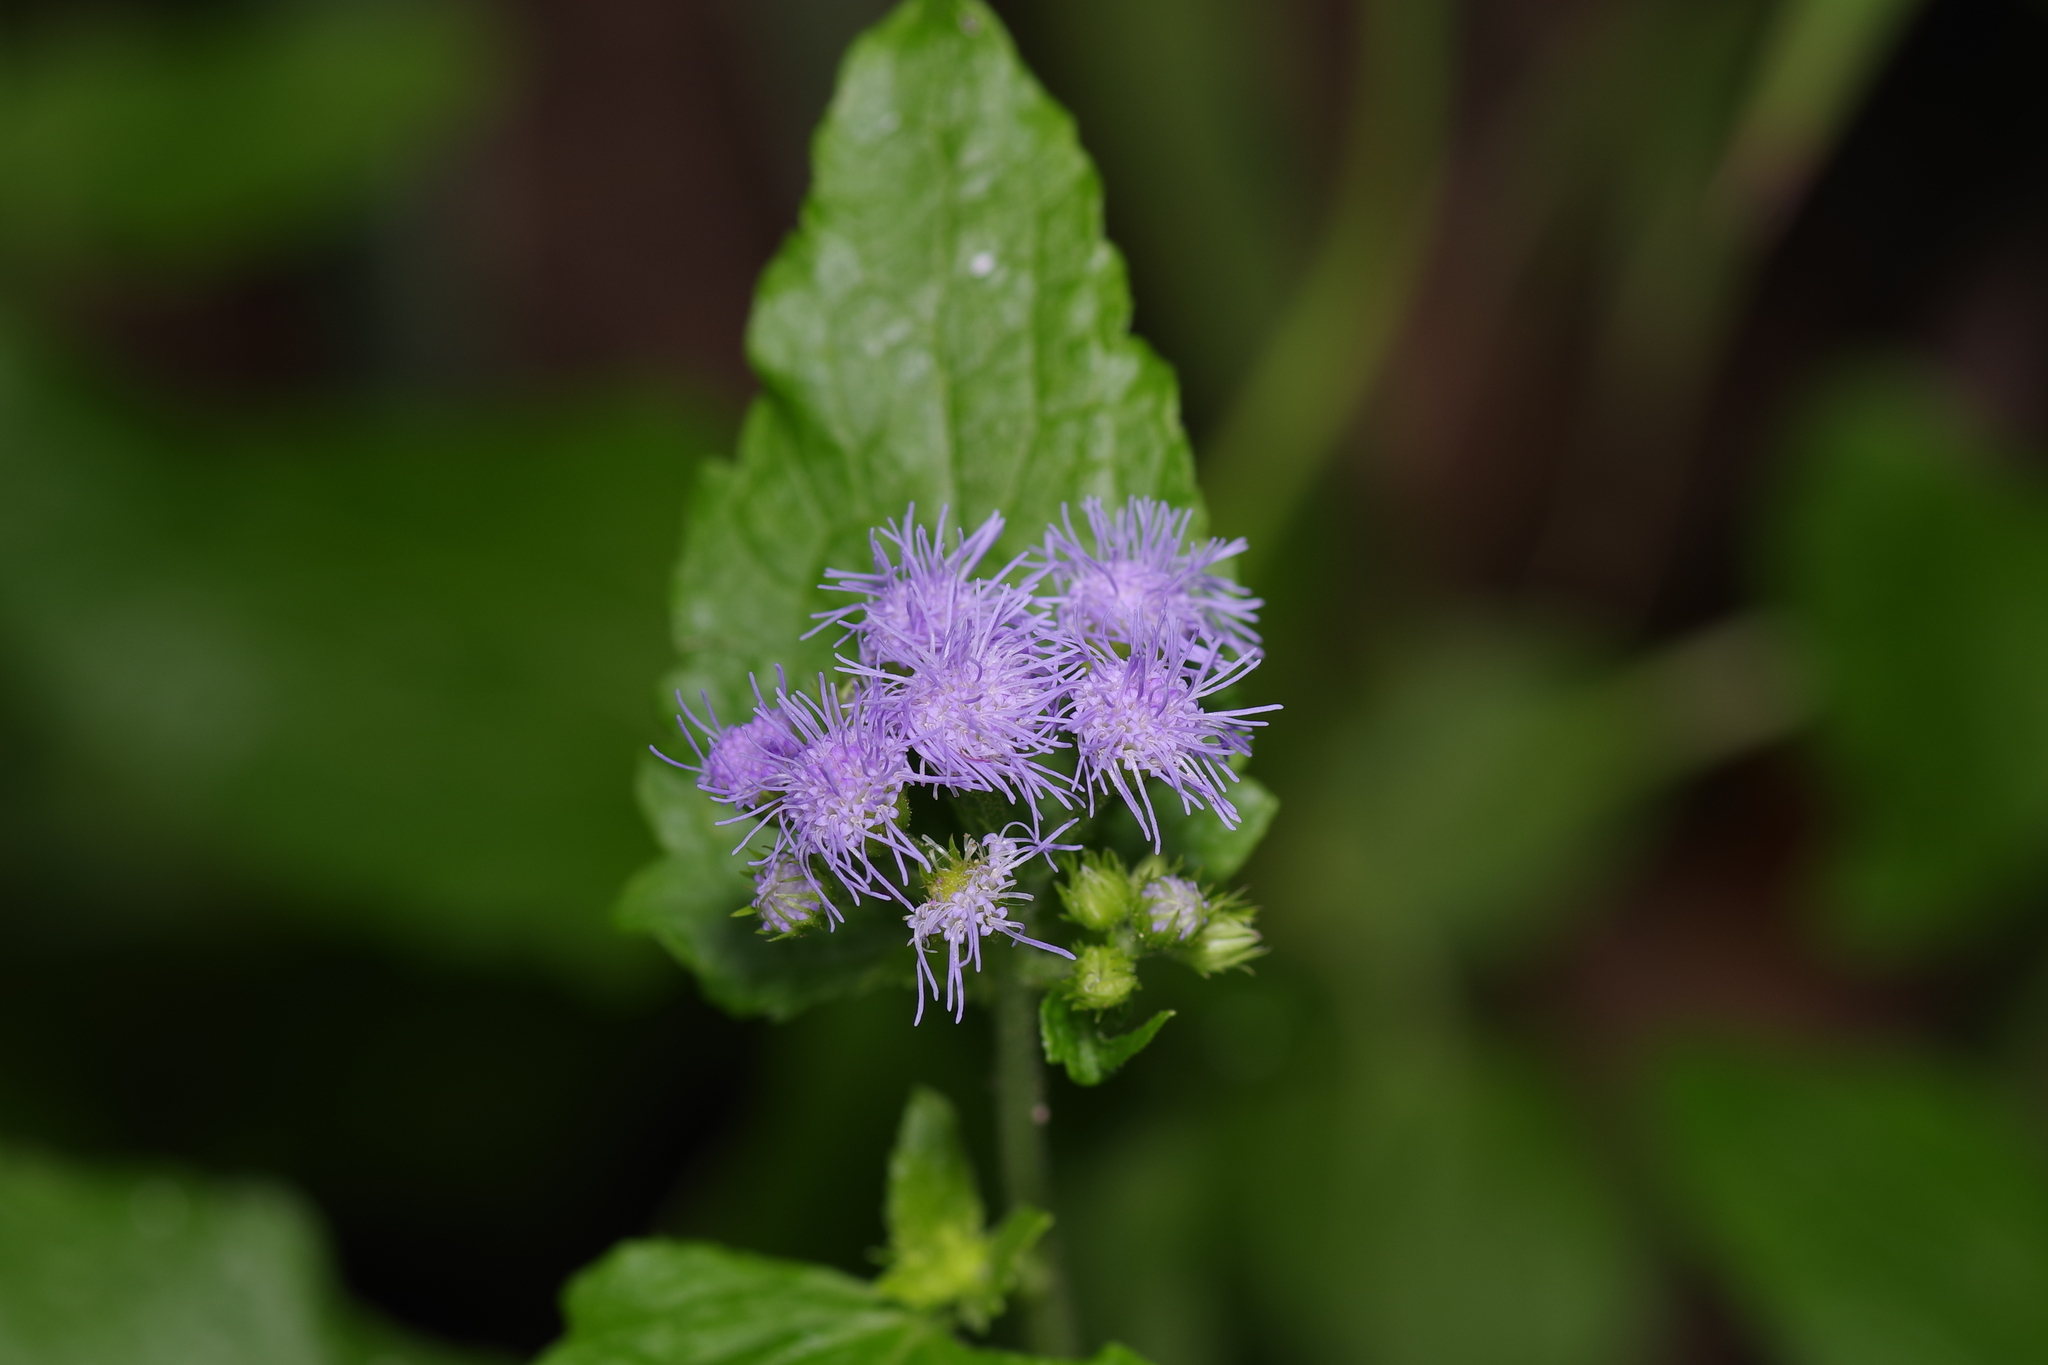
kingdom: Plantae
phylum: Tracheophyta
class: Magnoliopsida
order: Asterales
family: Asteraceae
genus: Conoclinium
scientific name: Conoclinium coelestinum
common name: Blue mistflower
